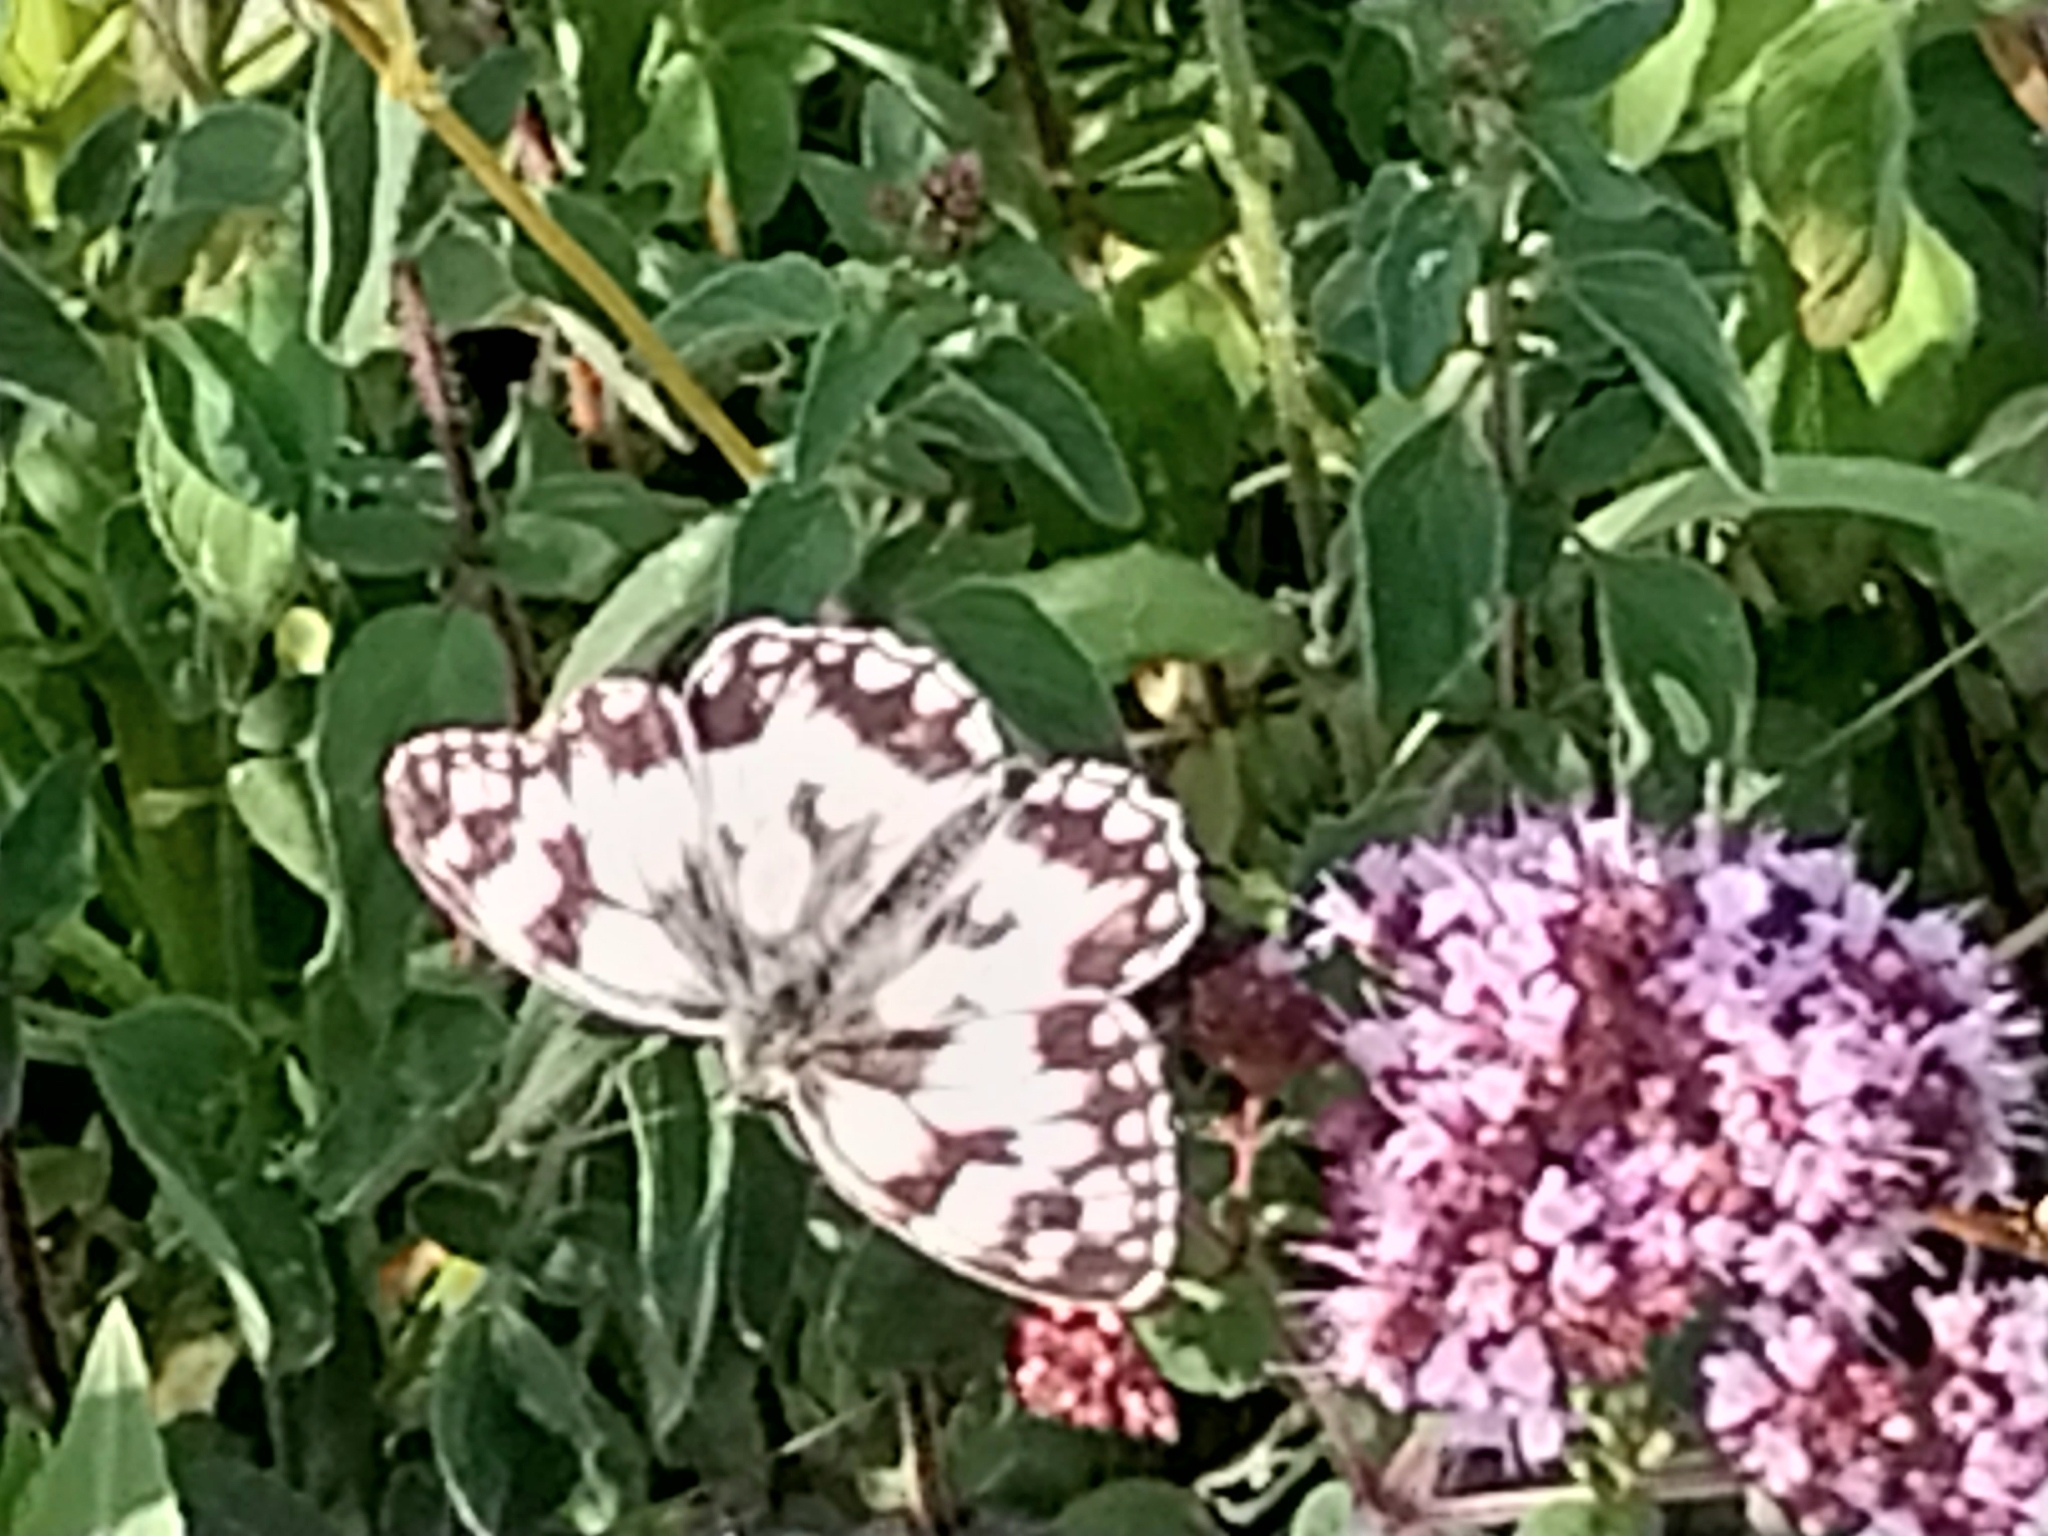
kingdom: Animalia
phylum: Arthropoda
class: Insecta
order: Lepidoptera
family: Nymphalidae
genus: Melanargia
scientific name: Melanargia galathea
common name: Marbled white
